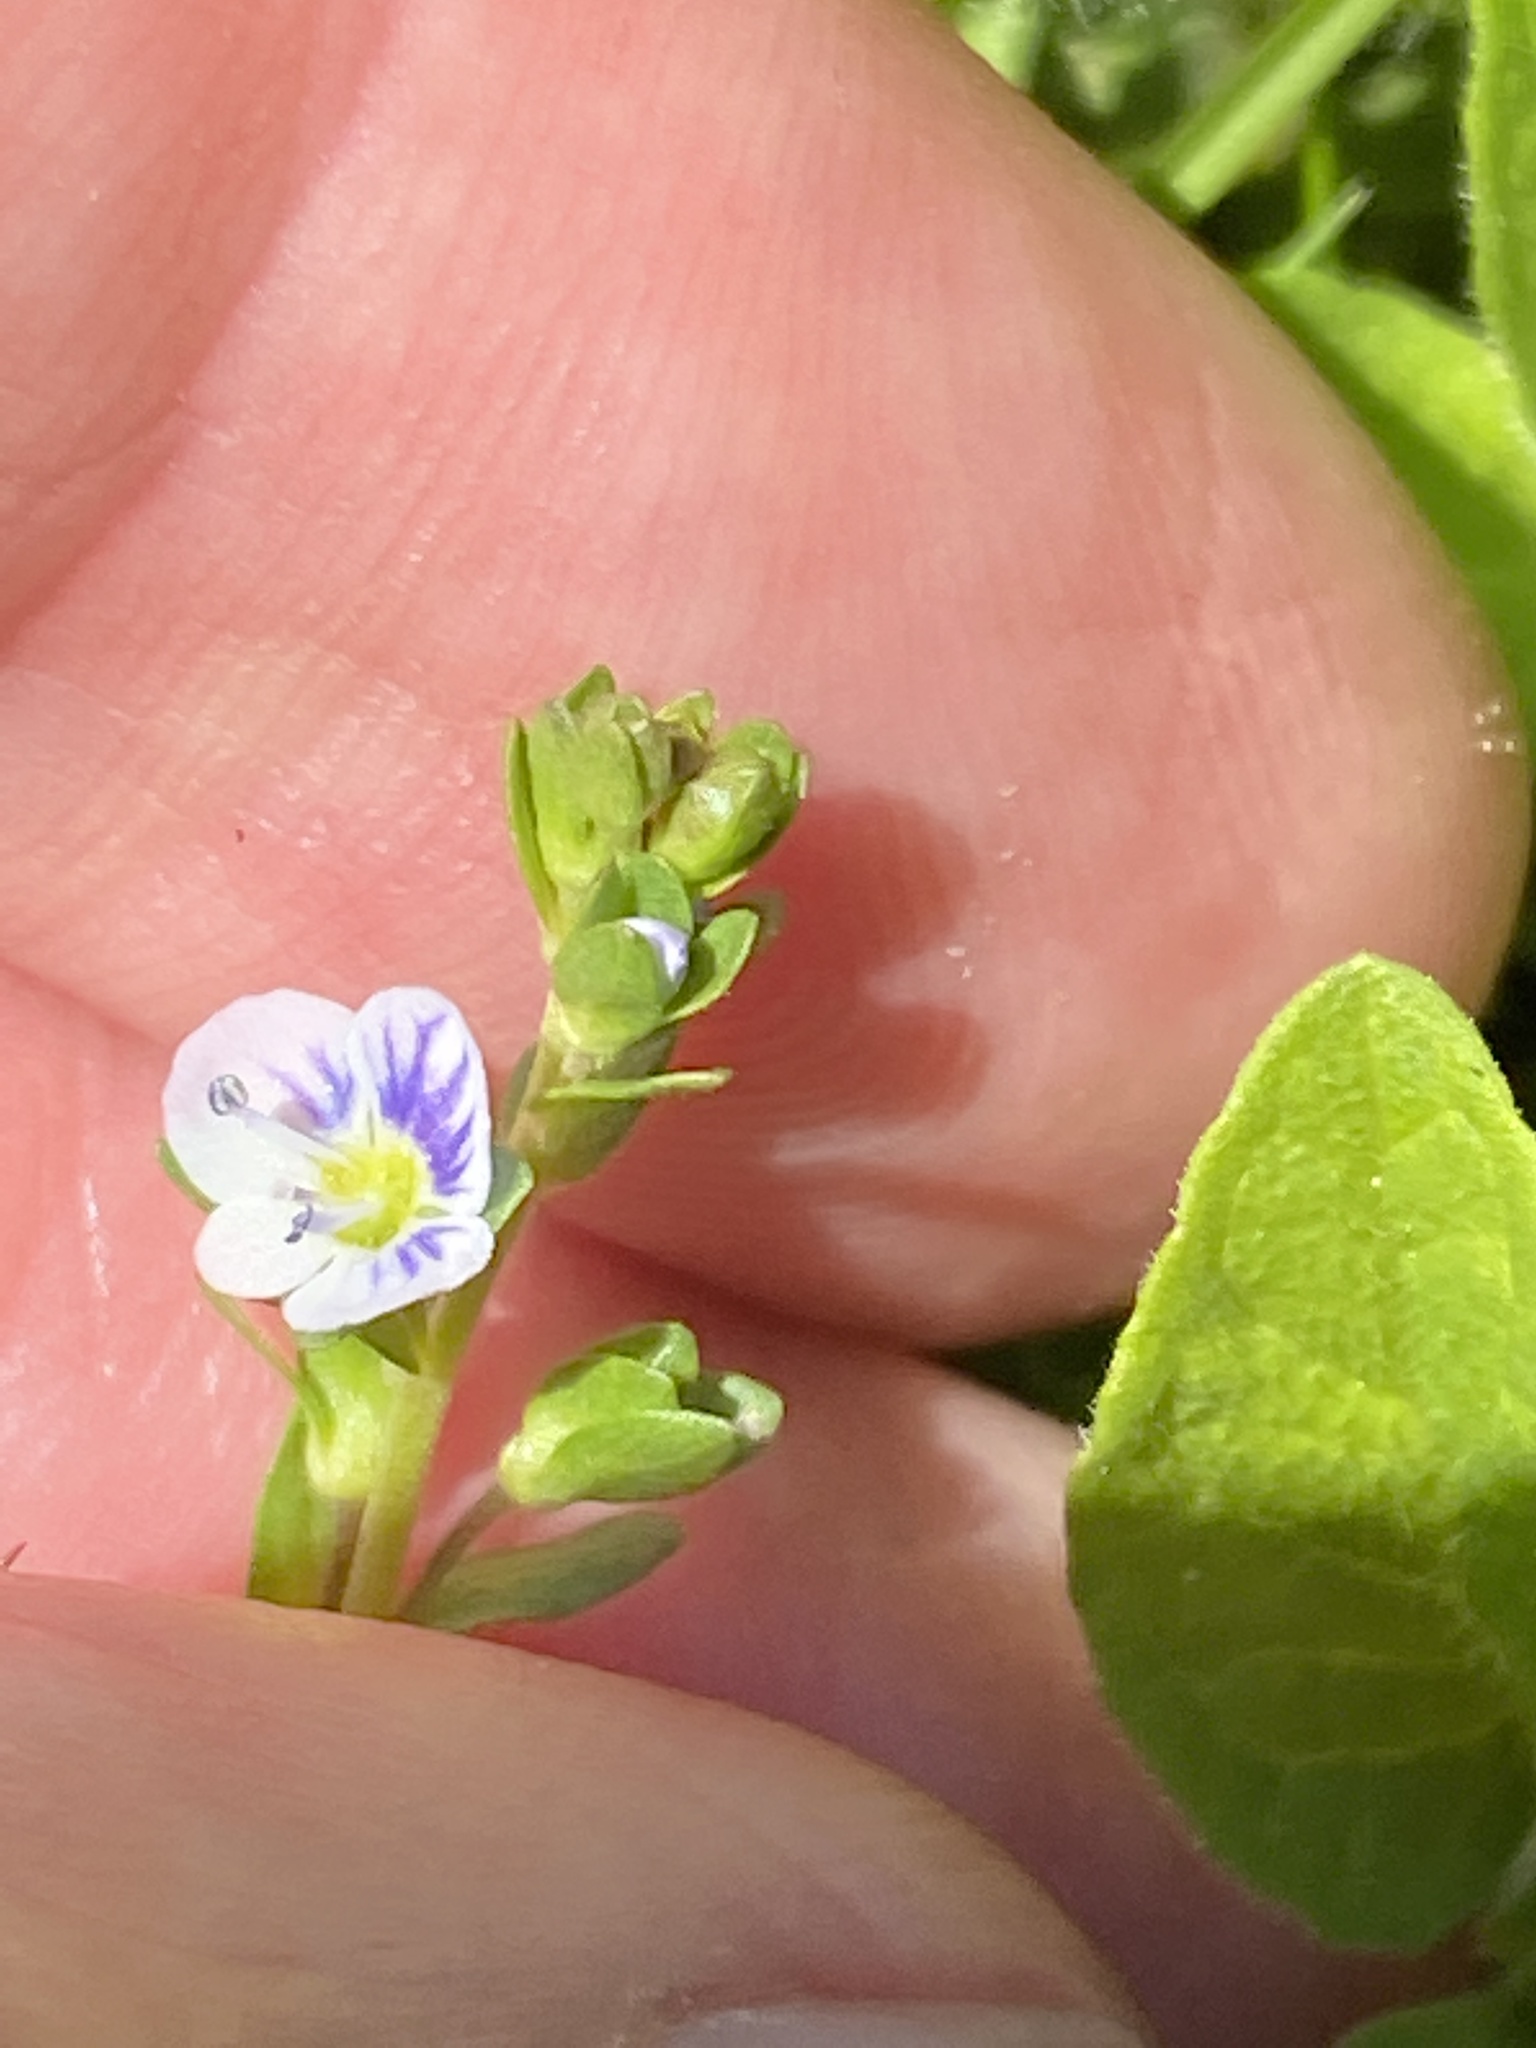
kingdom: Plantae
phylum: Tracheophyta
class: Magnoliopsida
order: Lamiales
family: Plantaginaceae
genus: Veronica
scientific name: Veronica serpyllifolia
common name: Thyme-leaved speedwell
